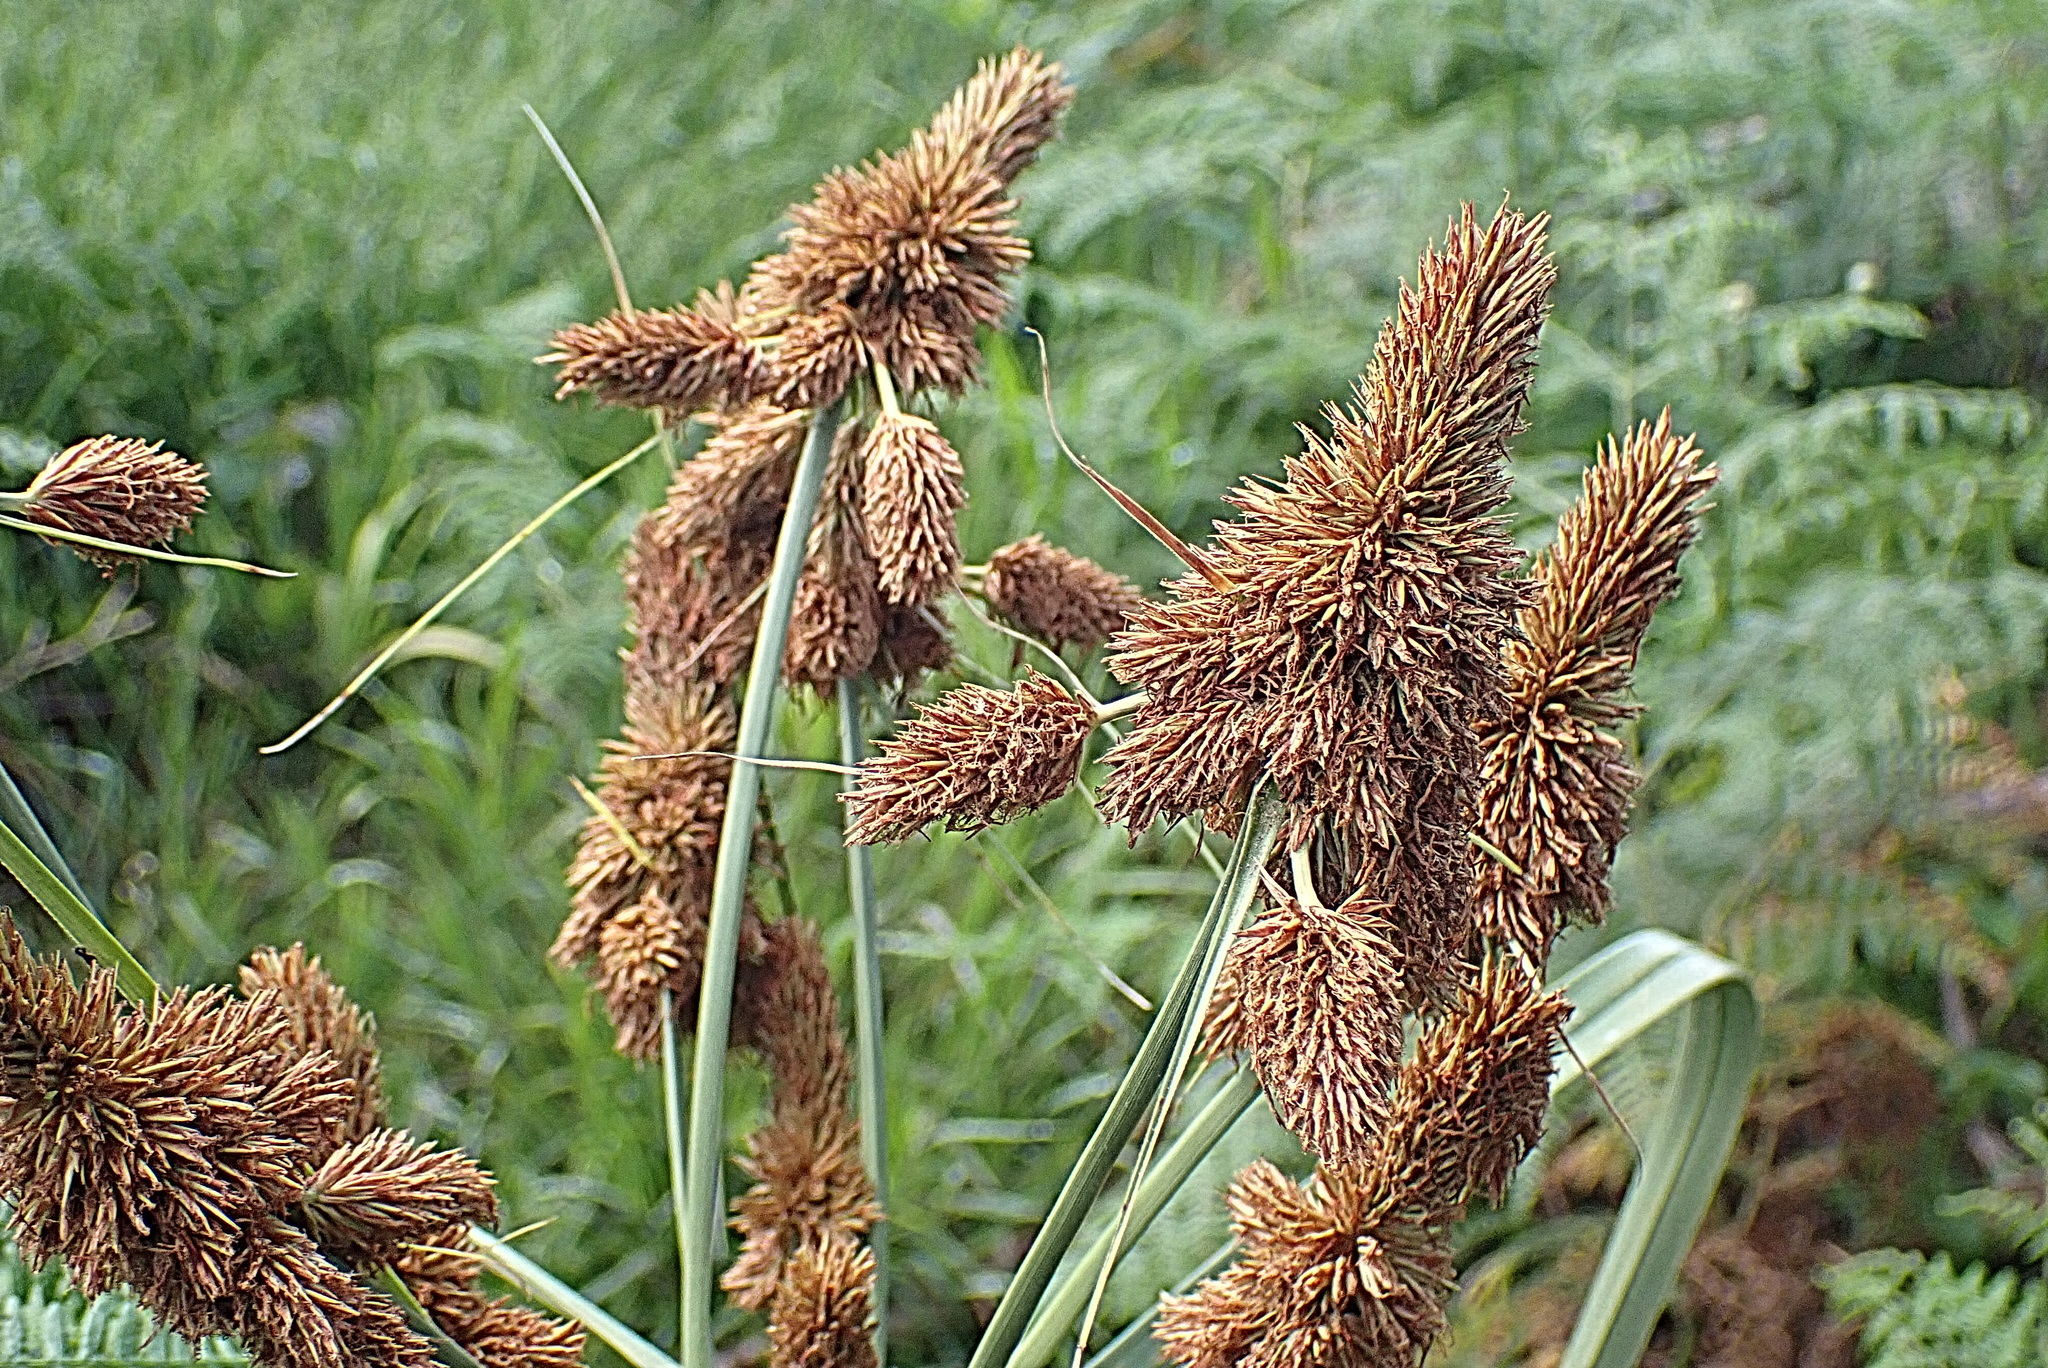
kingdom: Plantae
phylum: Tracheophyta
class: Liliopsida
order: Poales
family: Cyperaceae
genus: Cyperus
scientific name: Cyperus thunbergii
